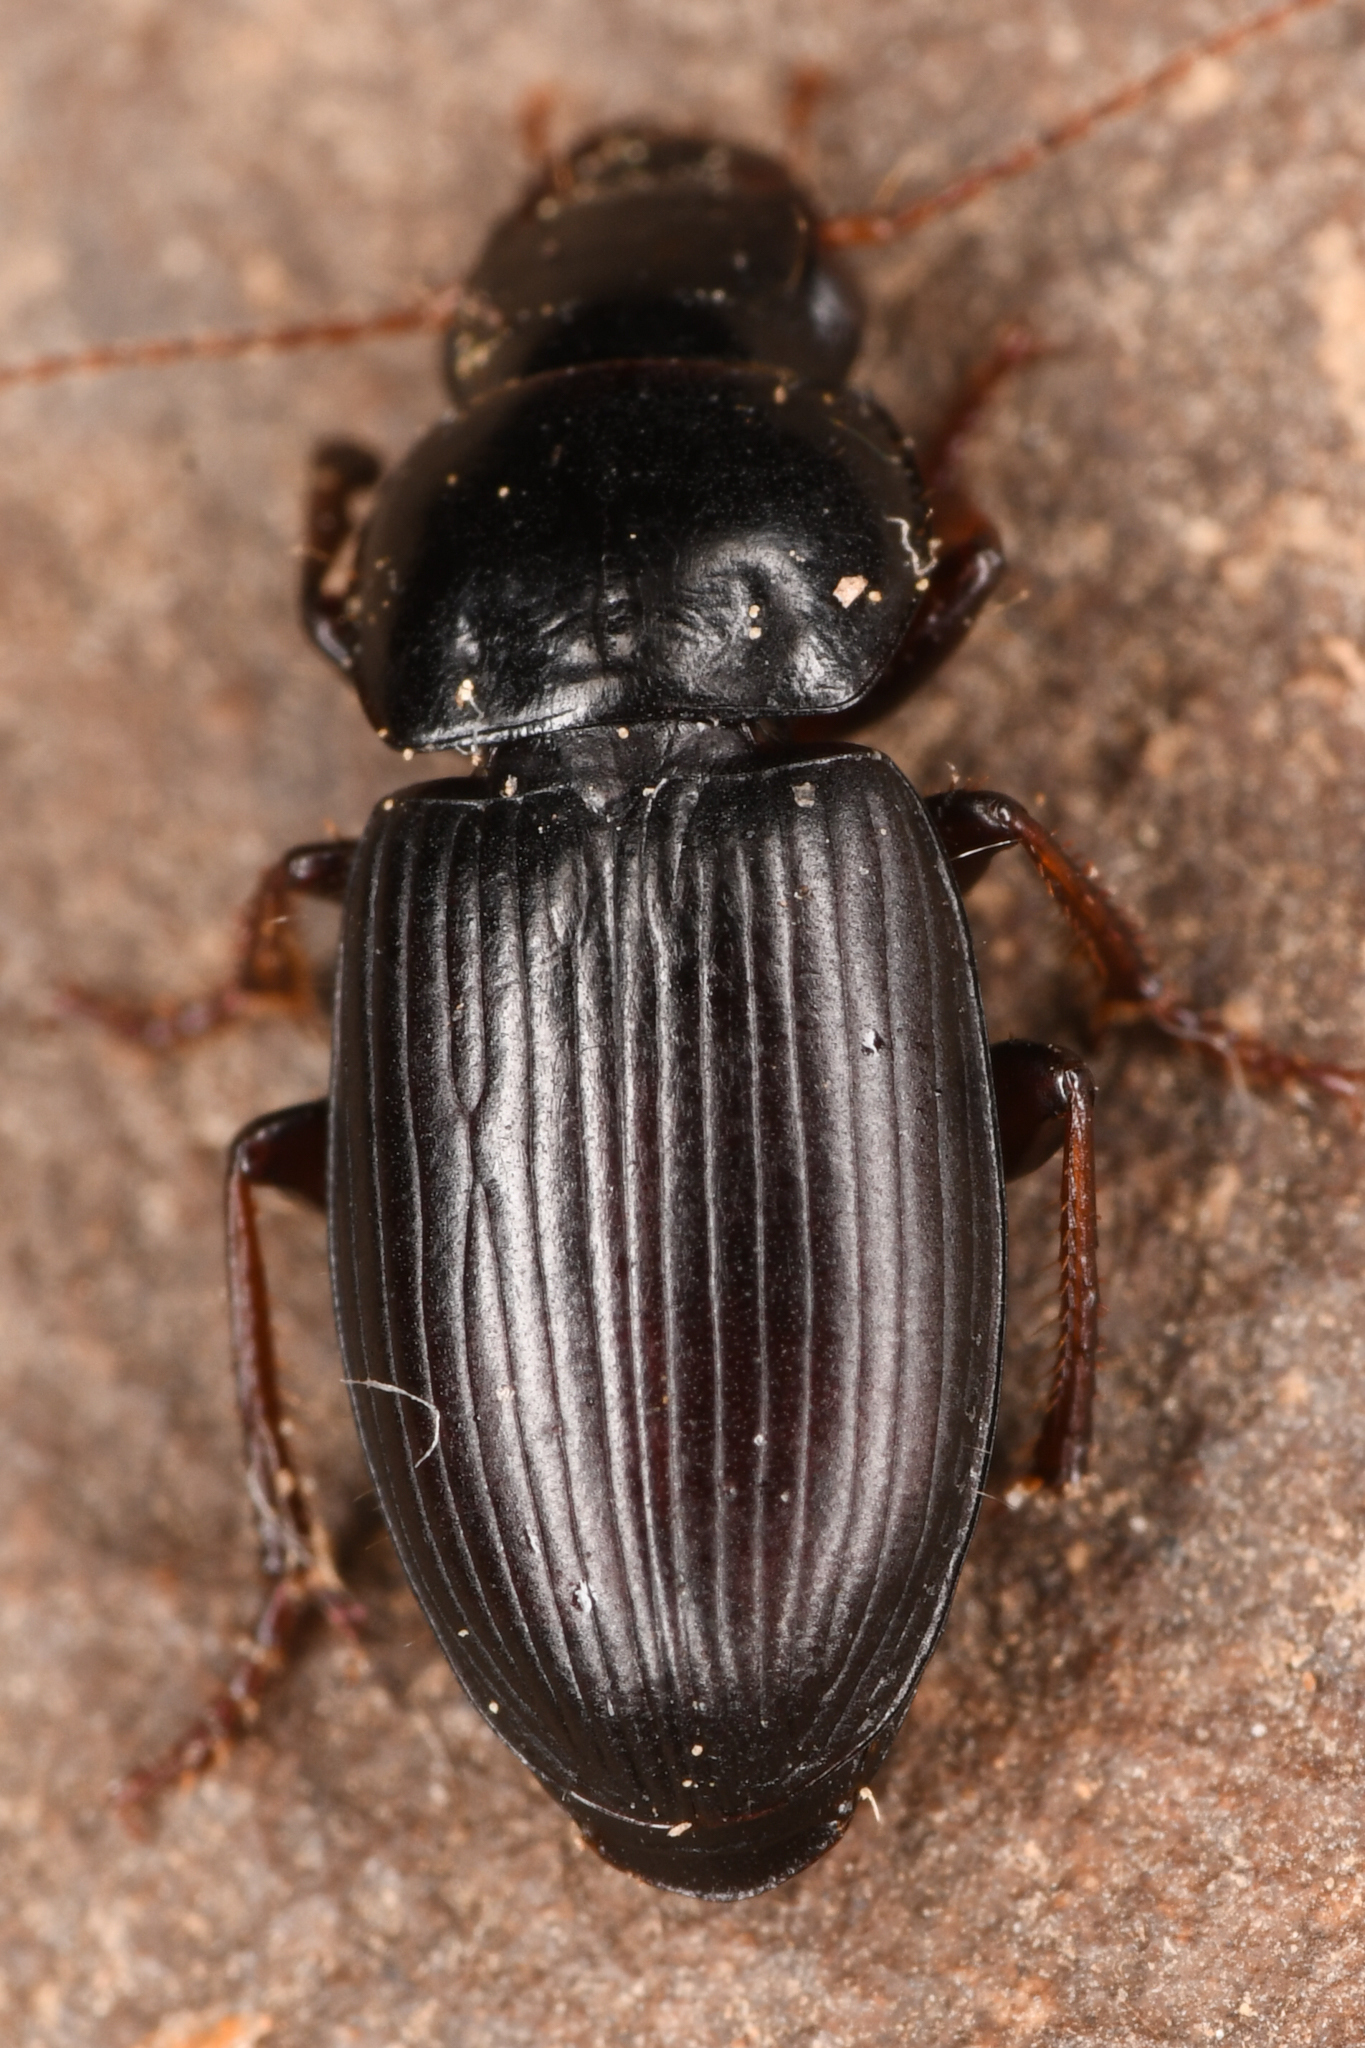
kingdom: Animalia
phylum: Arthropoda
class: Insecta
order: Coleoptera
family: Carabidae
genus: Harpalus
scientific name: Harpalus nigritarsis
